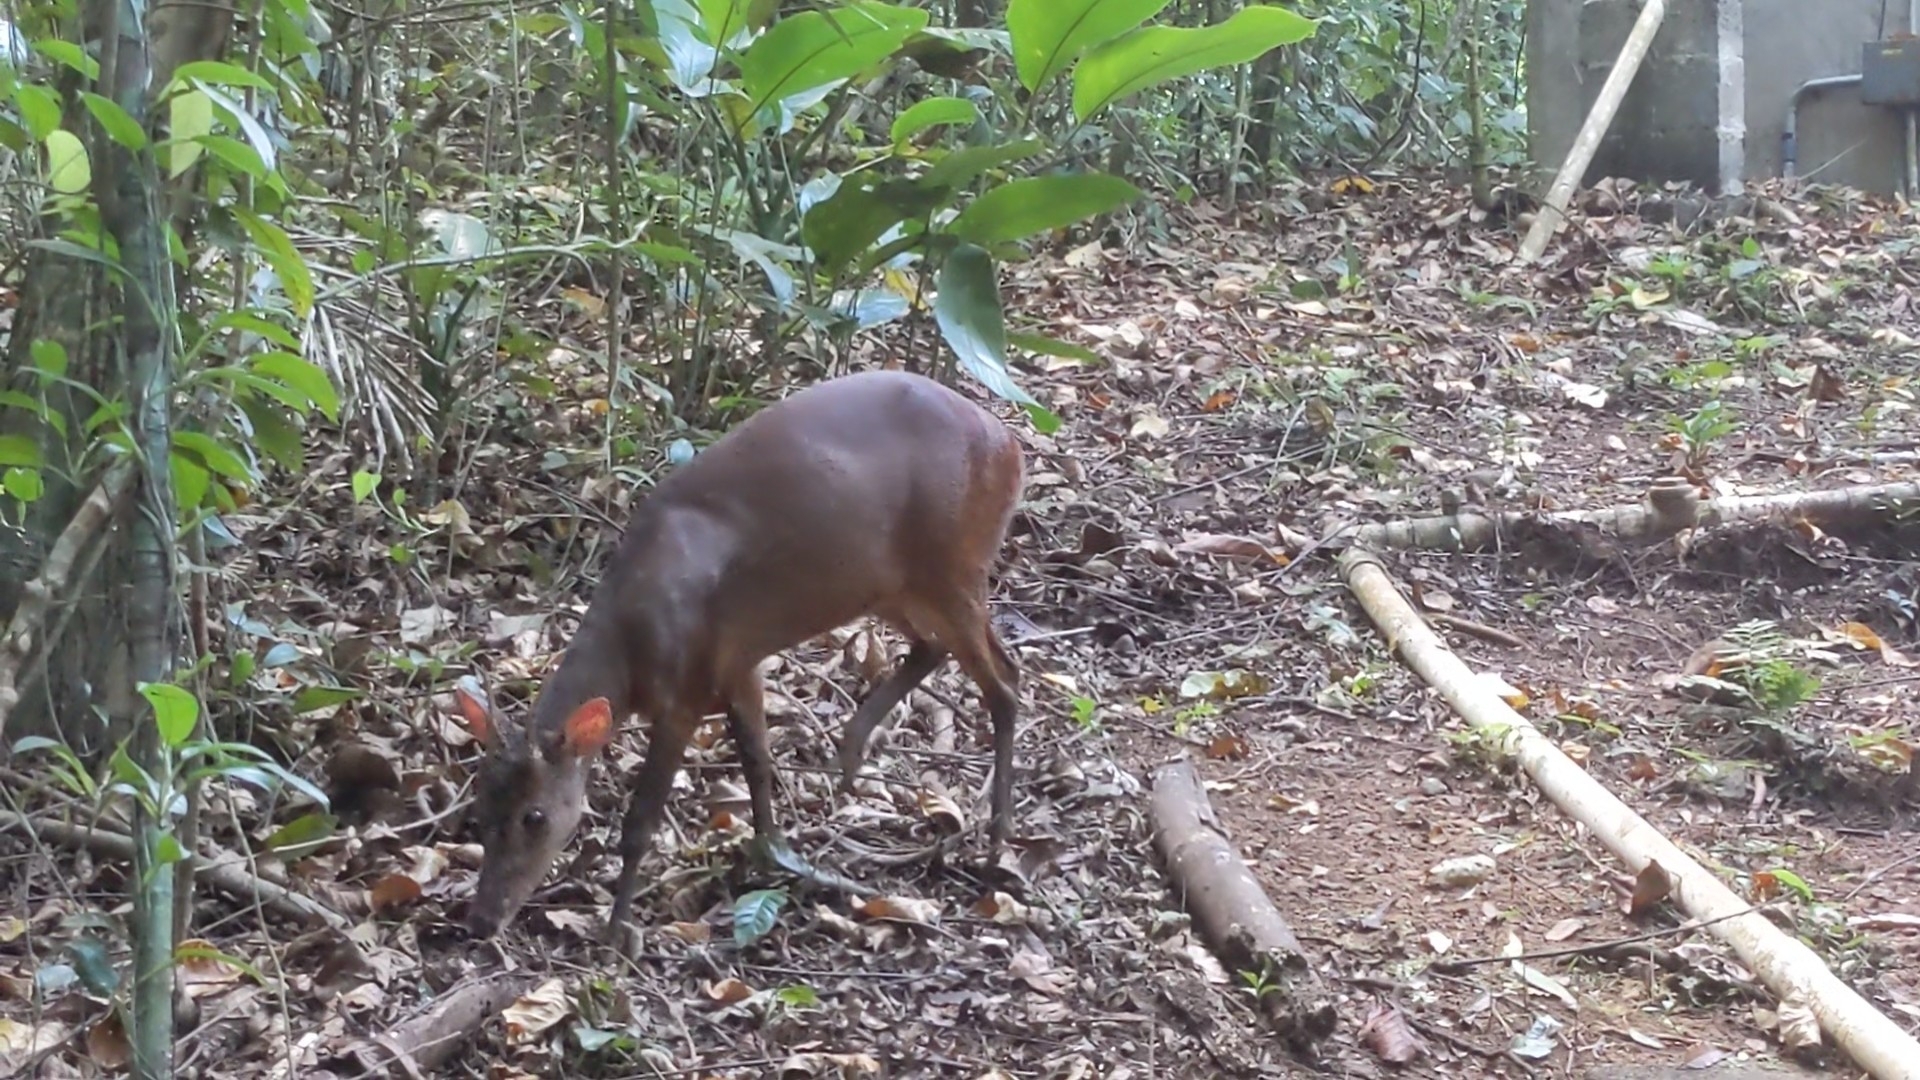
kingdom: Animalia
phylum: Chordata
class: Mammalia
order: Artiodactyla
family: Cervidae
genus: Mazama
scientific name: Mazama temama
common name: Central american red brocket
